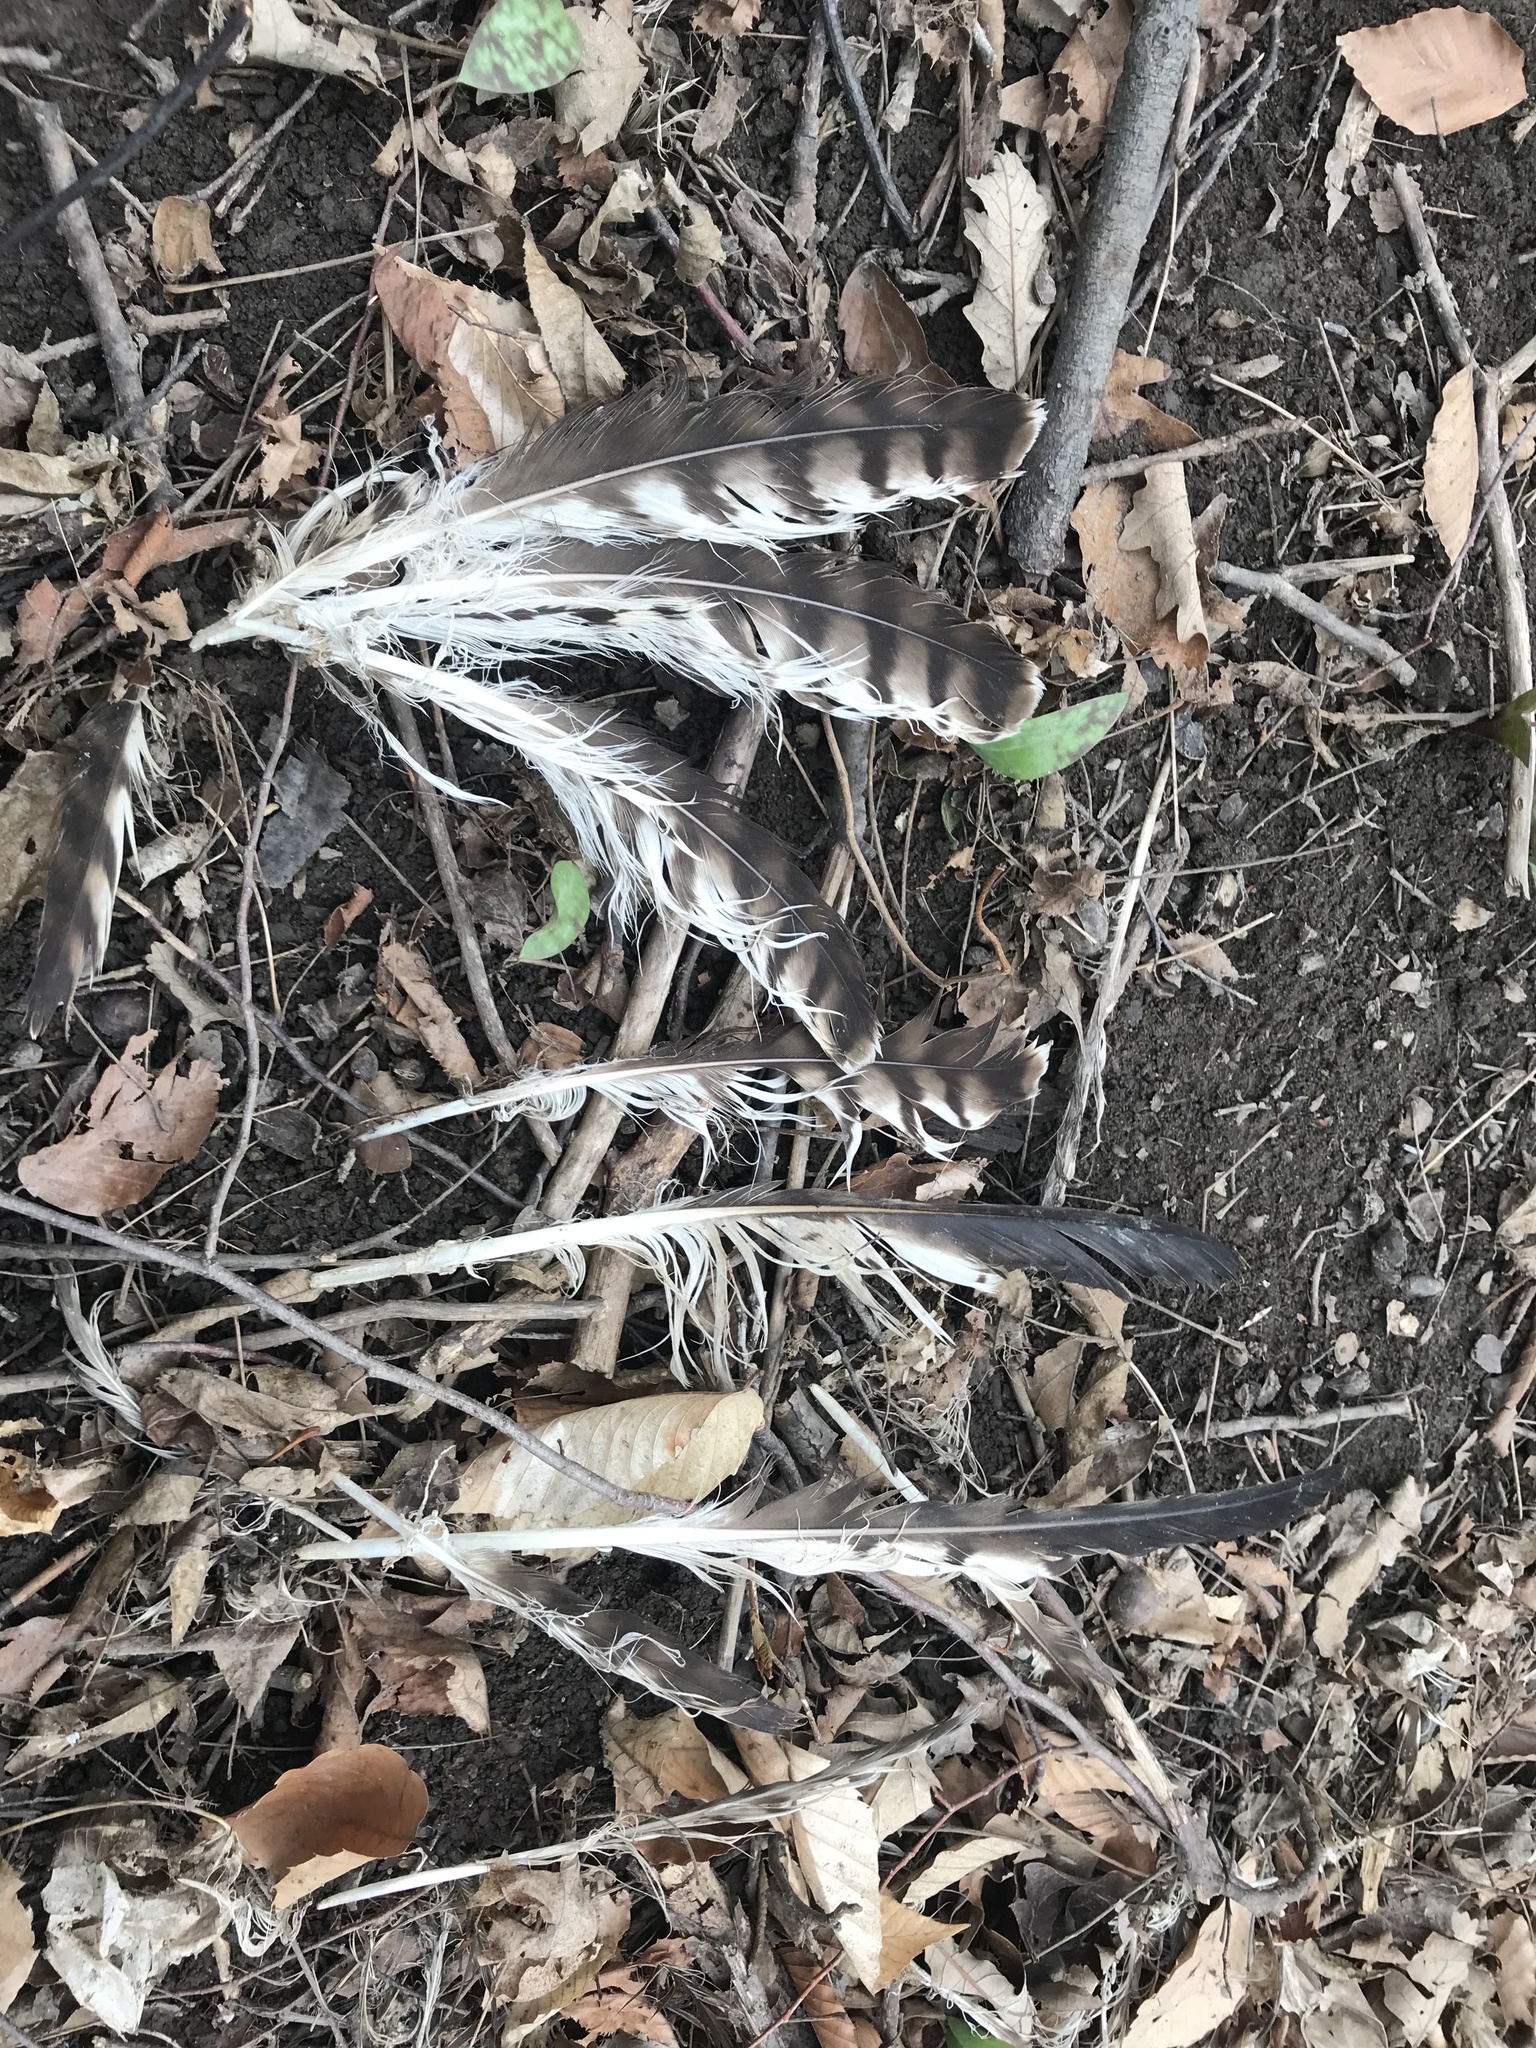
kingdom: Animalia
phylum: Chordata
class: Aves
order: Accipitriformes
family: Accipitridae
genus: Buteo
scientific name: Buteo jamaicensis
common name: Red-tailed hawk
